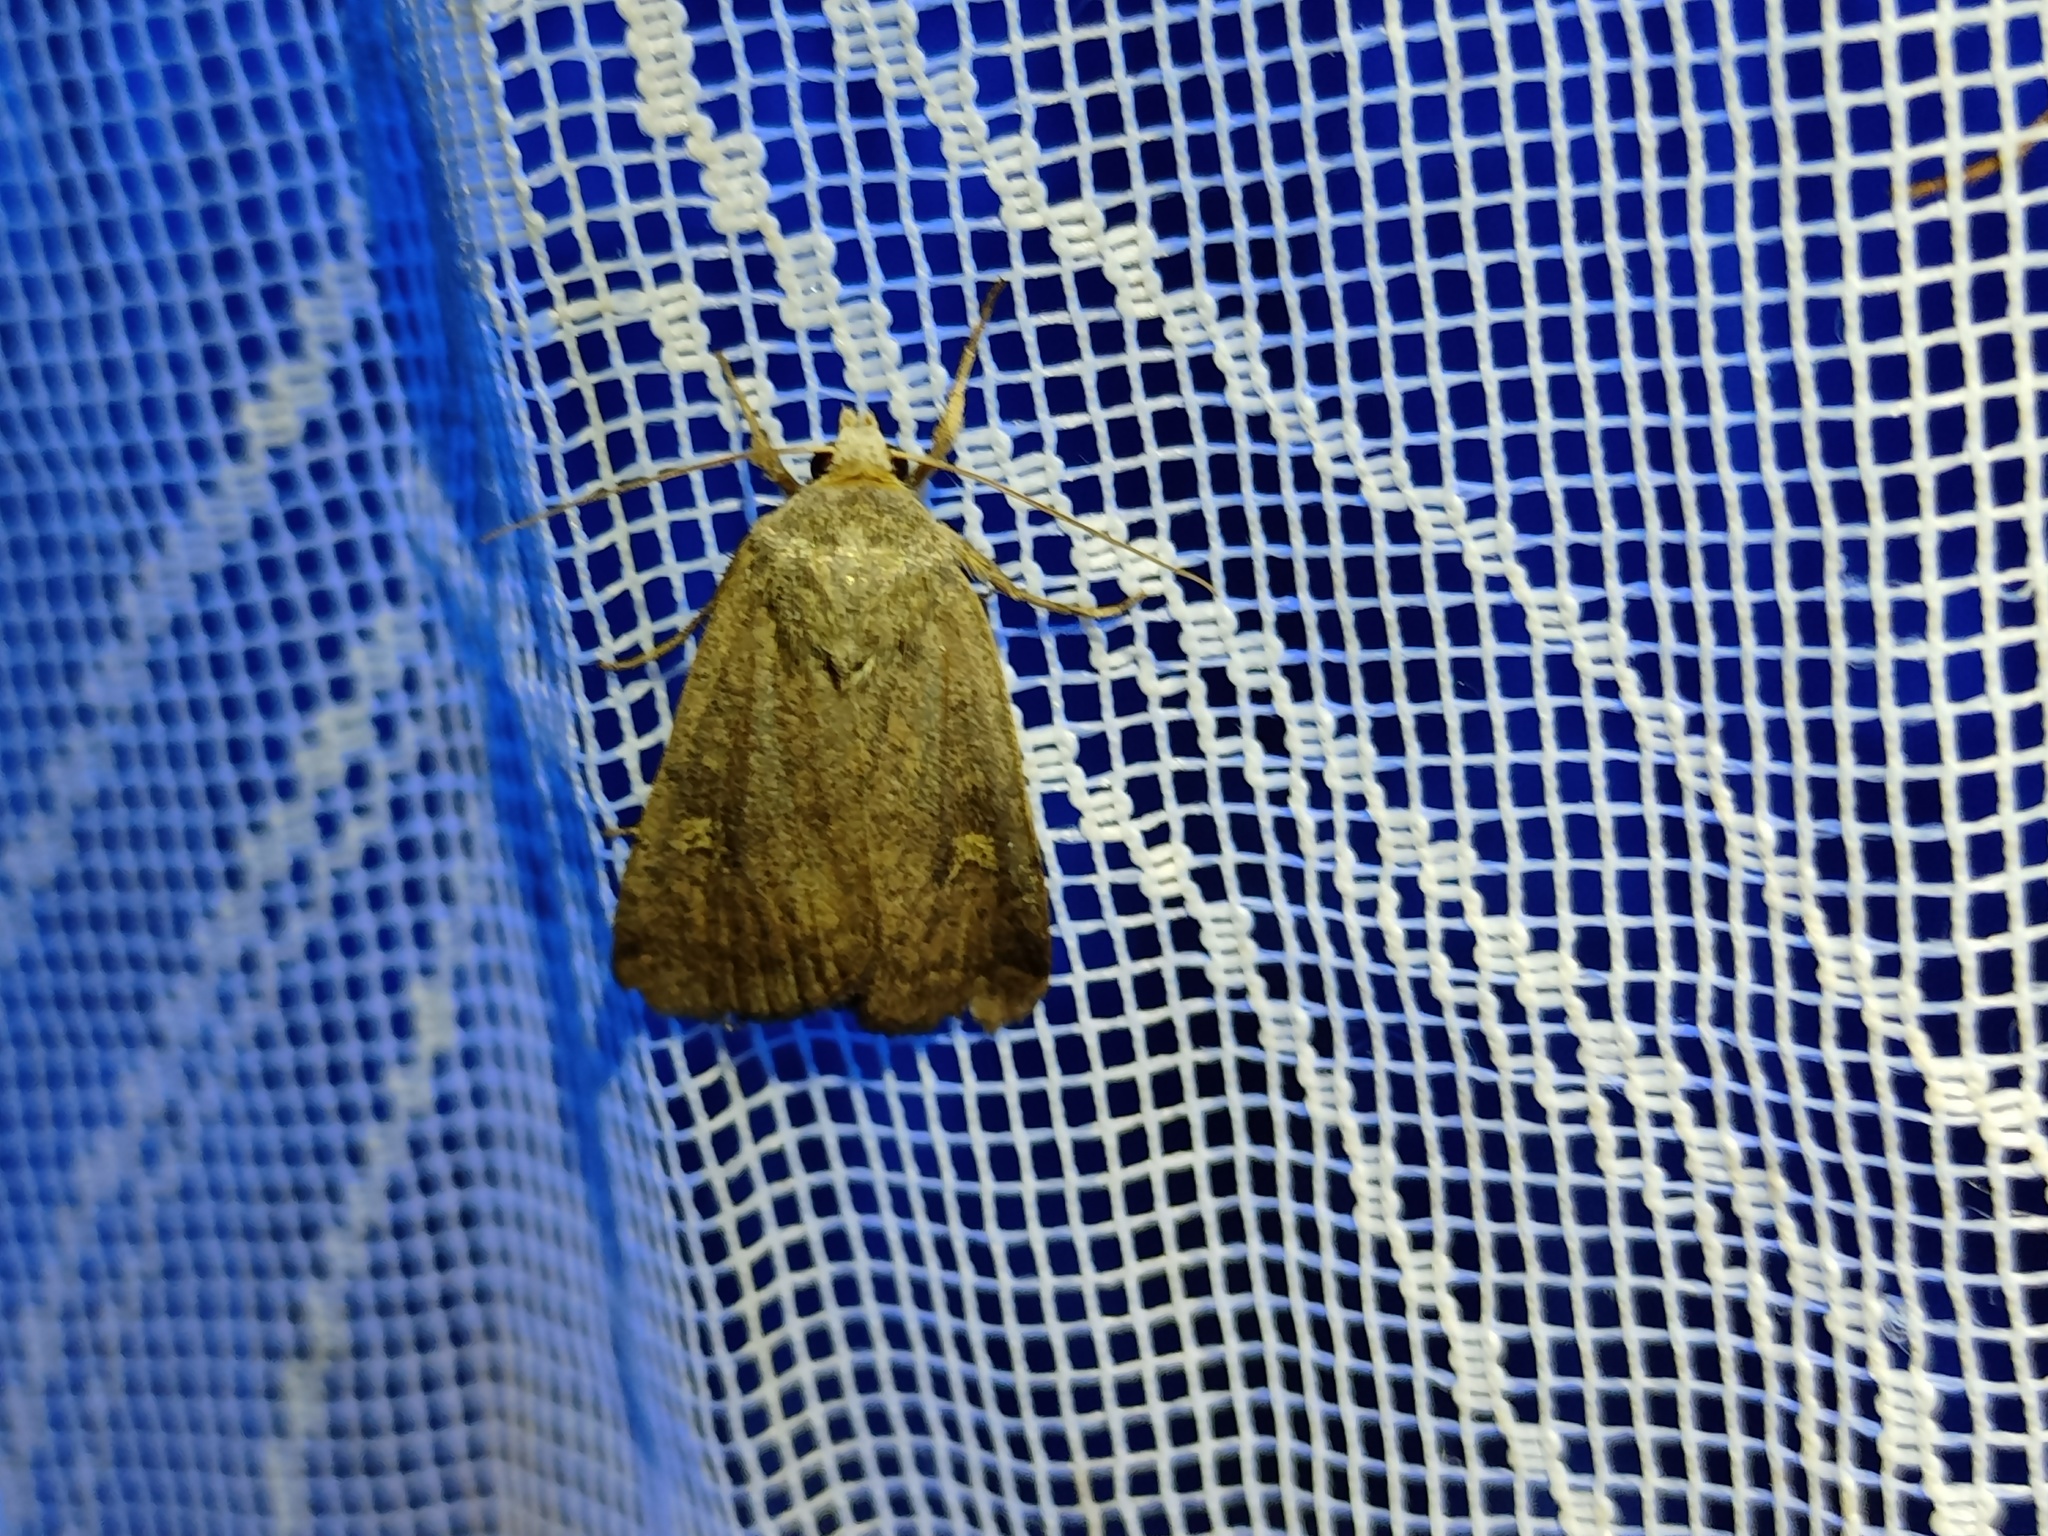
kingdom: Animalia
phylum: Arthropoda
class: Insecta
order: Lepidoptera
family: Noctuidae
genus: Xestia
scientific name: Xestia xanthographa
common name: Square-spot rustic
